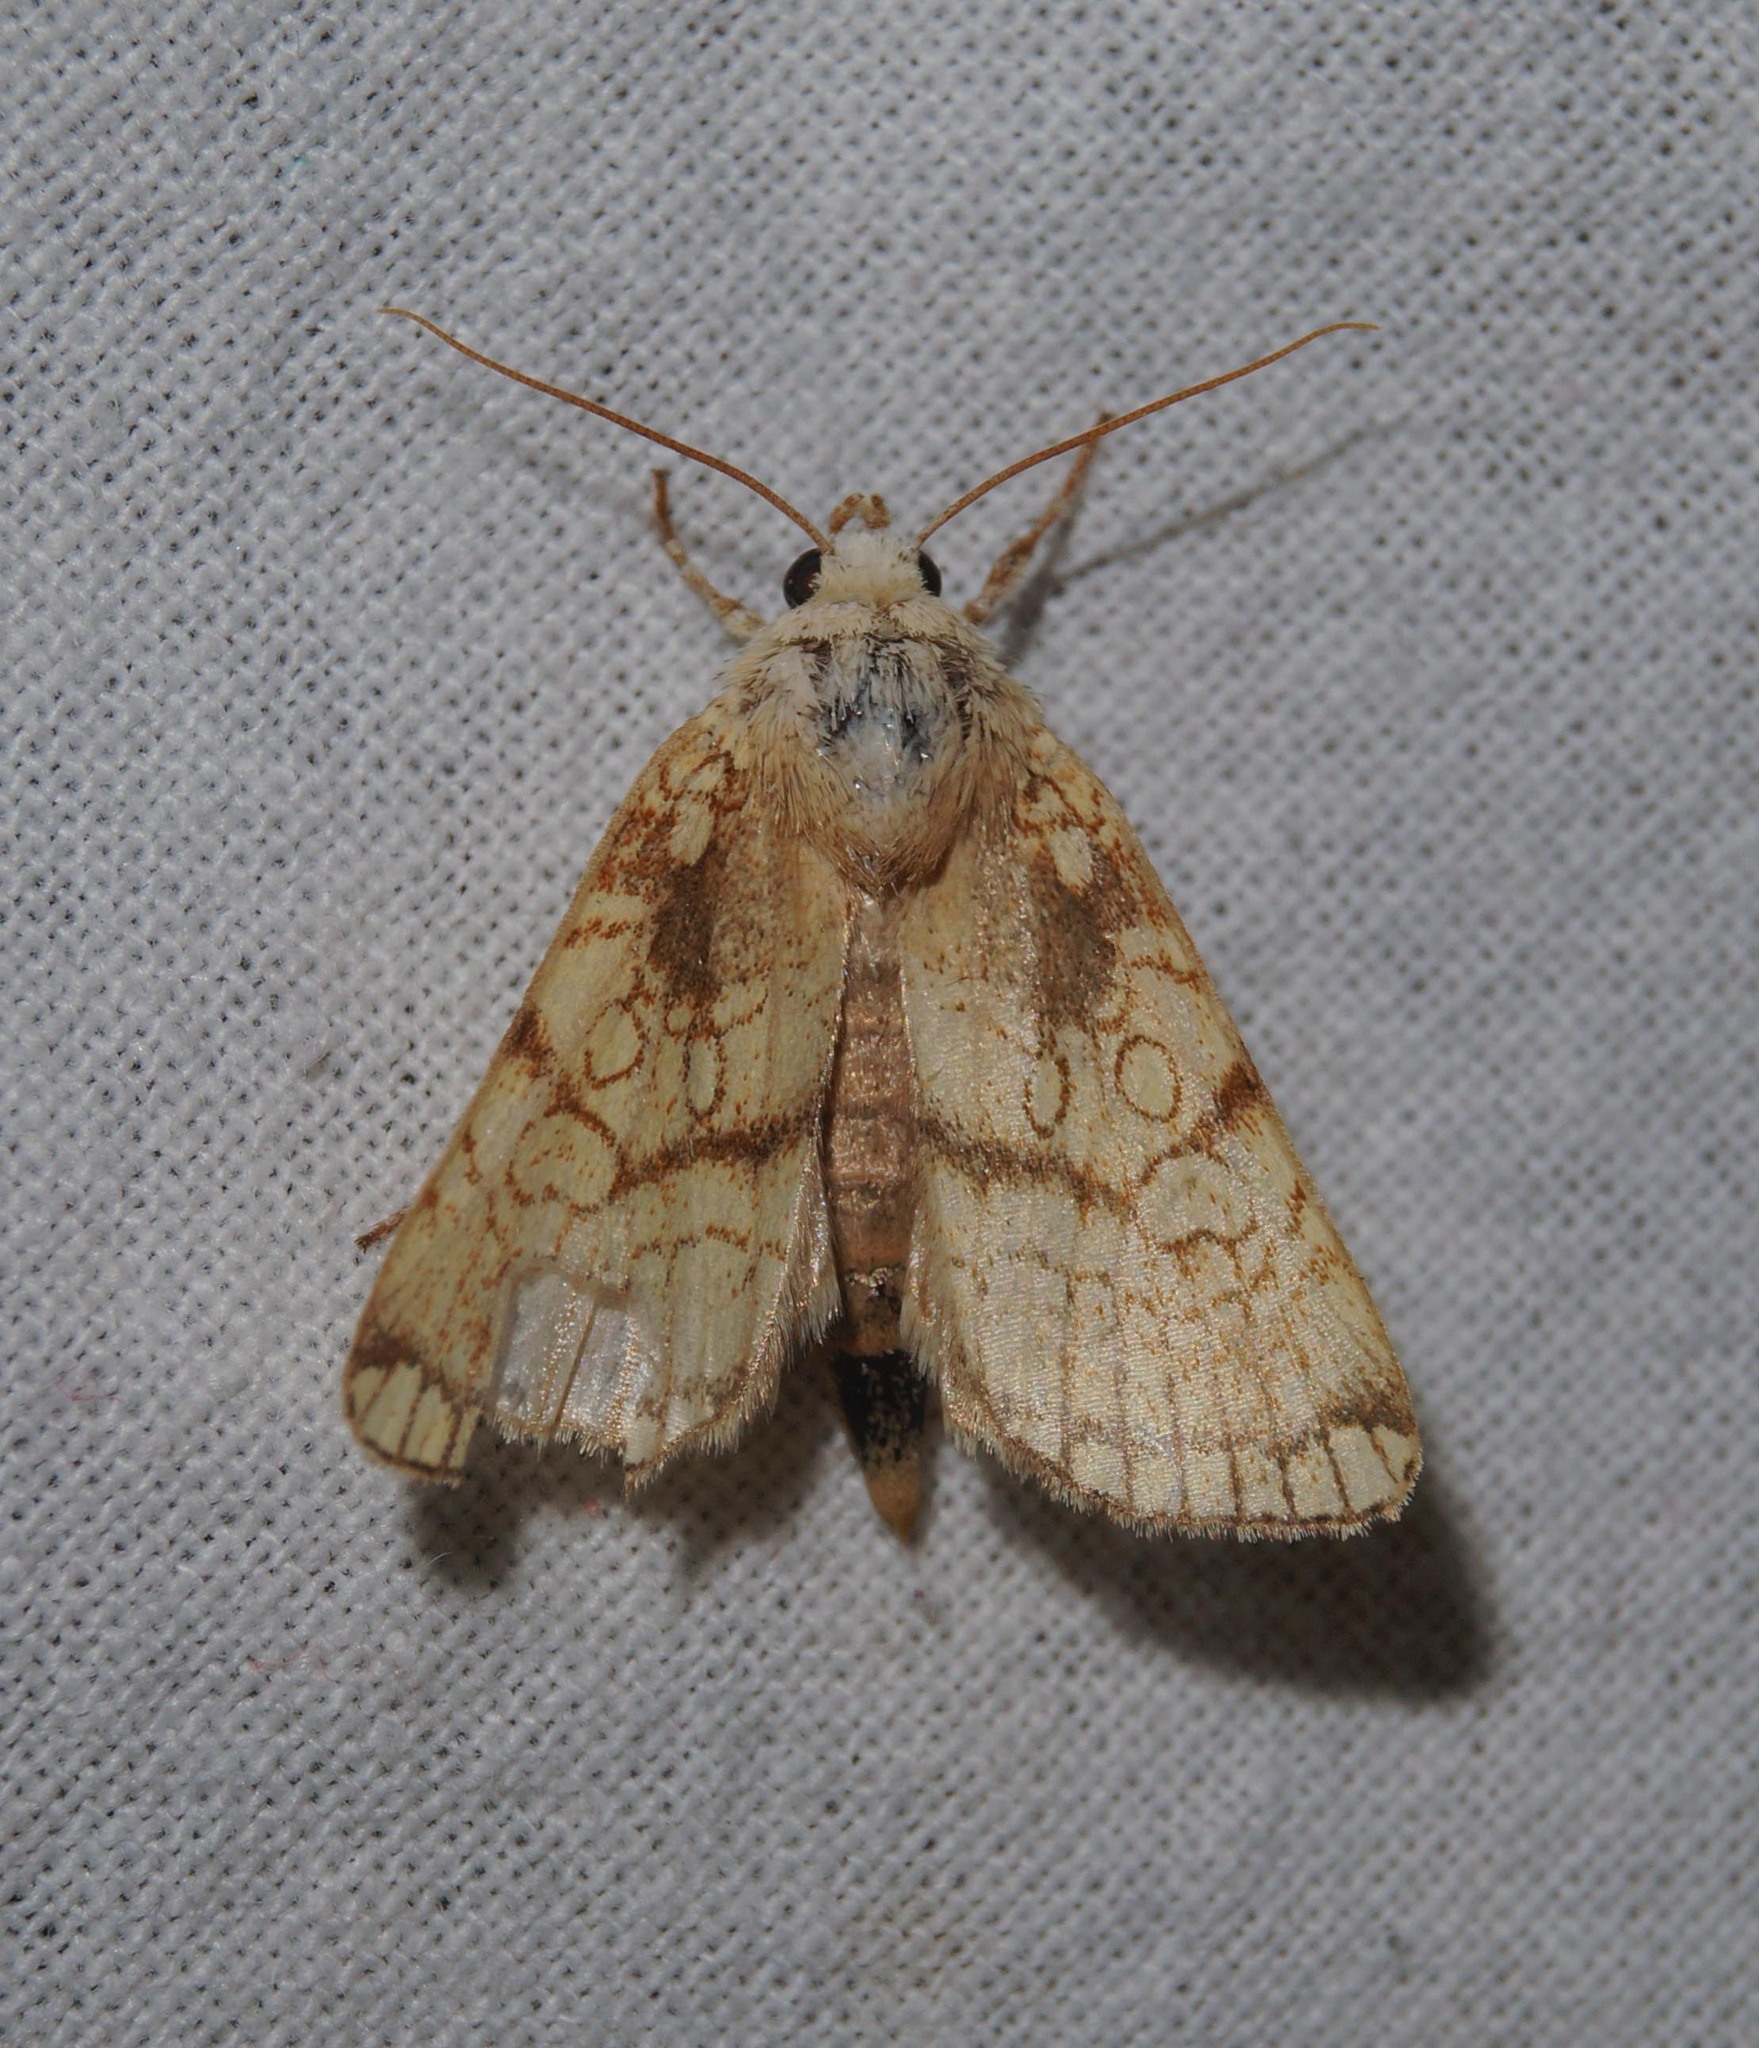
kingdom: Animalia
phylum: Arthropoda
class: Insecta
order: Lepidoptera
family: Noctuidae
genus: Dicycla
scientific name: Dicycla oo
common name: Heart moth
